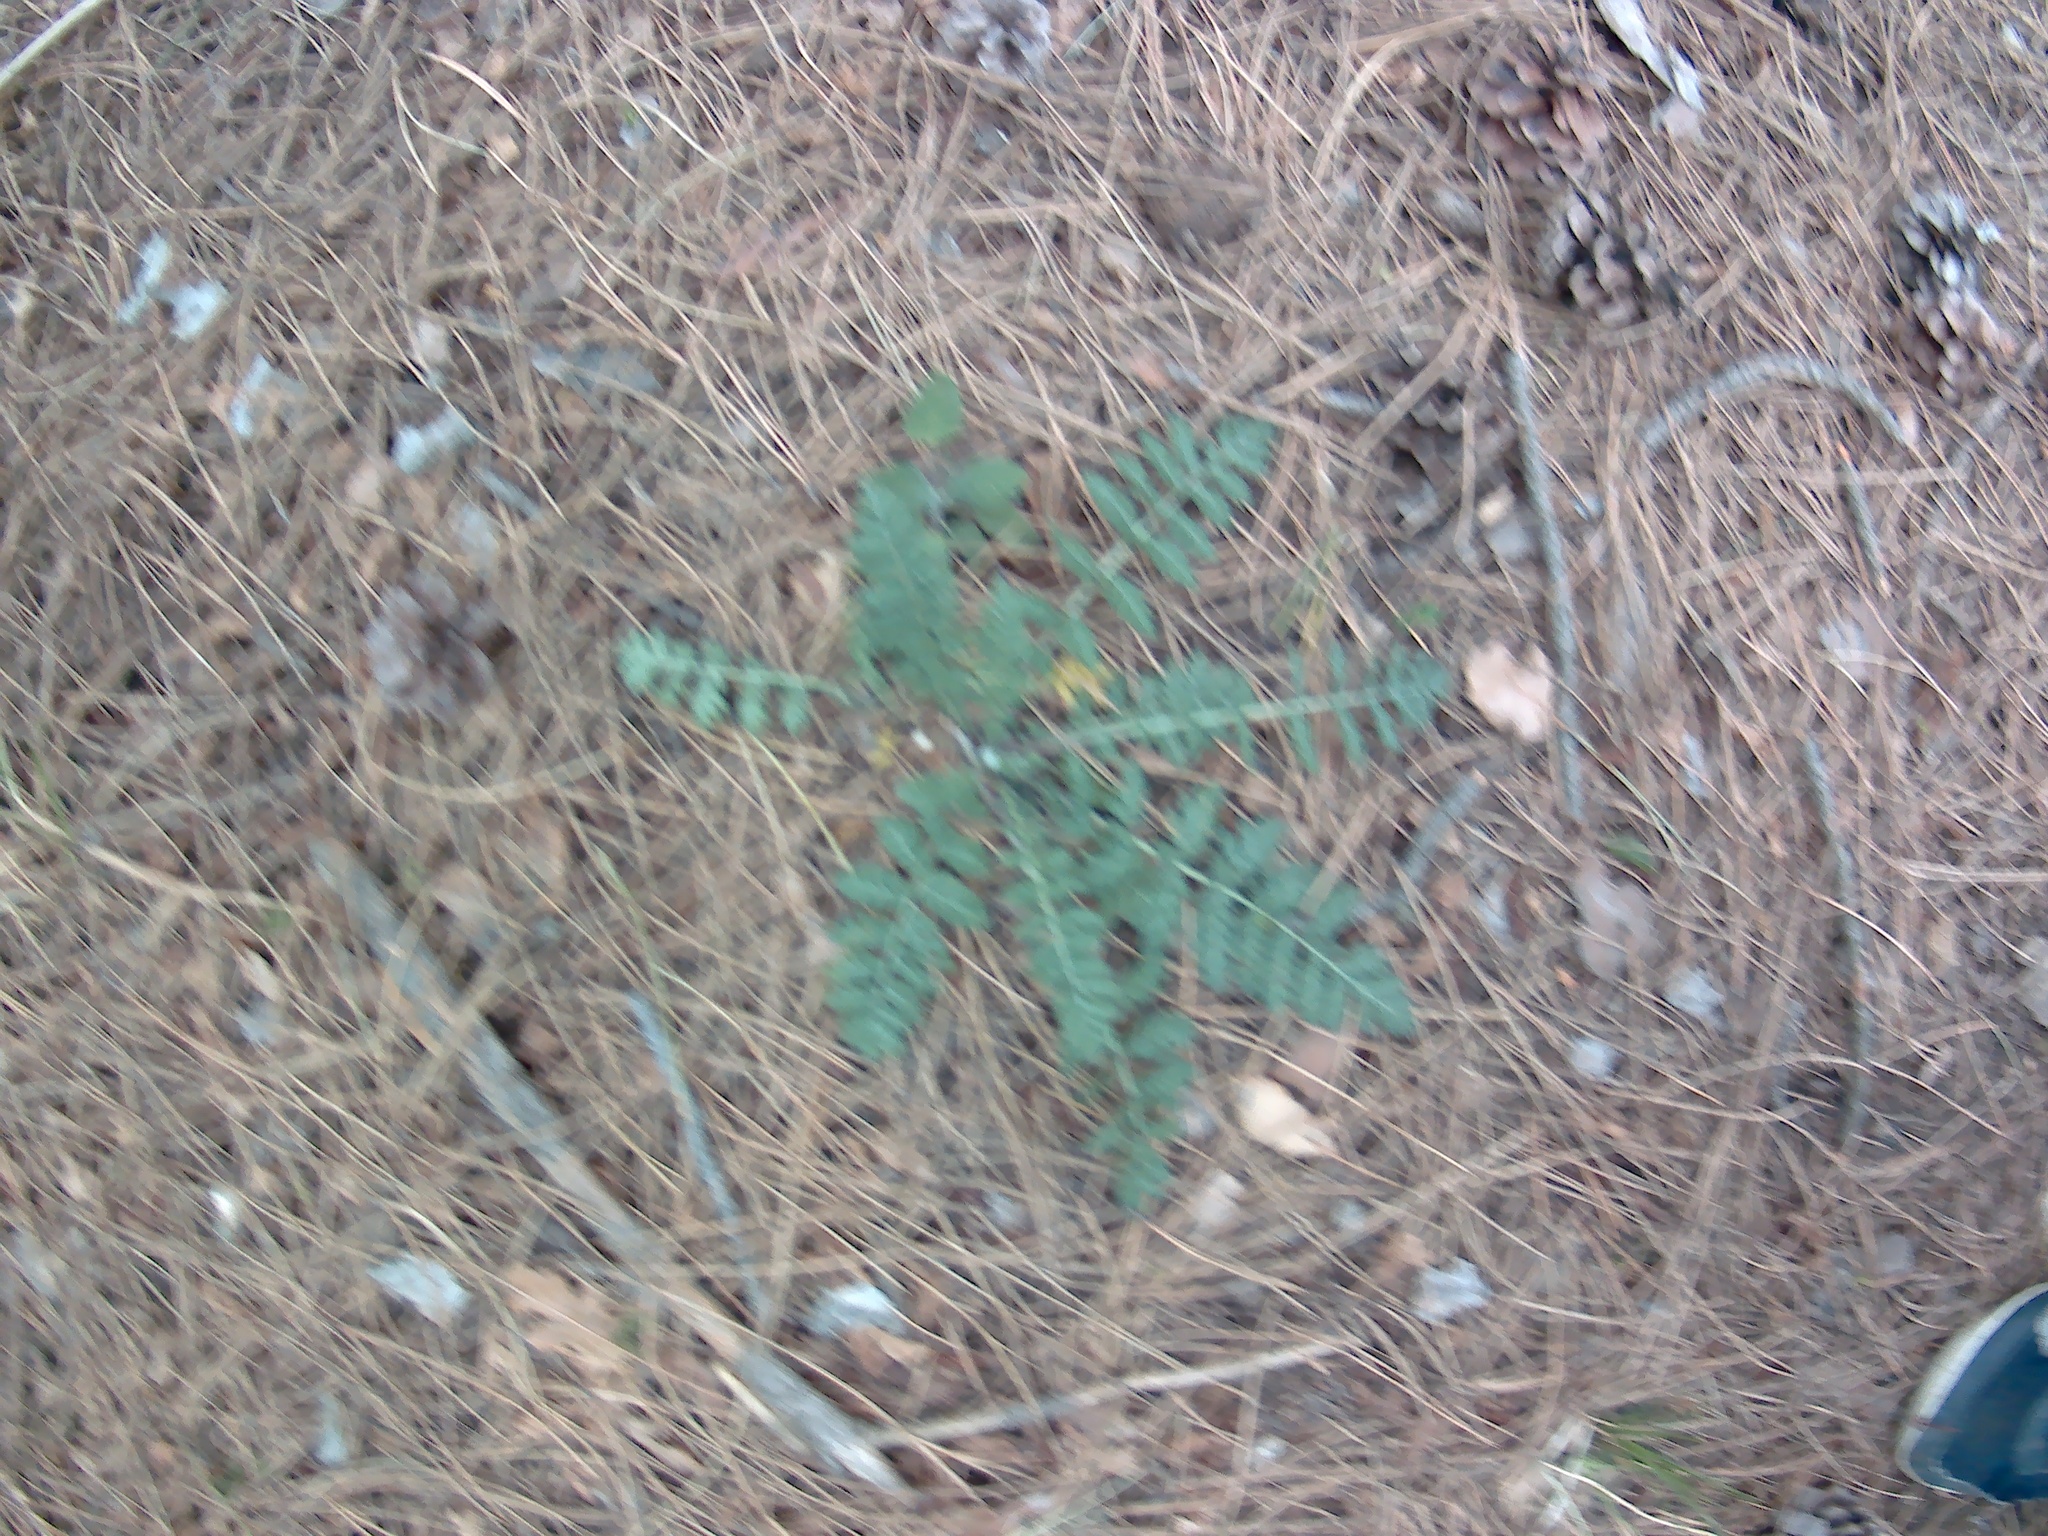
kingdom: Plantae
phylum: Tracheophyta
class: Magnoliopsida
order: Asterales
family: Asteraceae
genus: Tanacetum
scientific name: Tanacetum corymbosum
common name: Scentless feverfew
